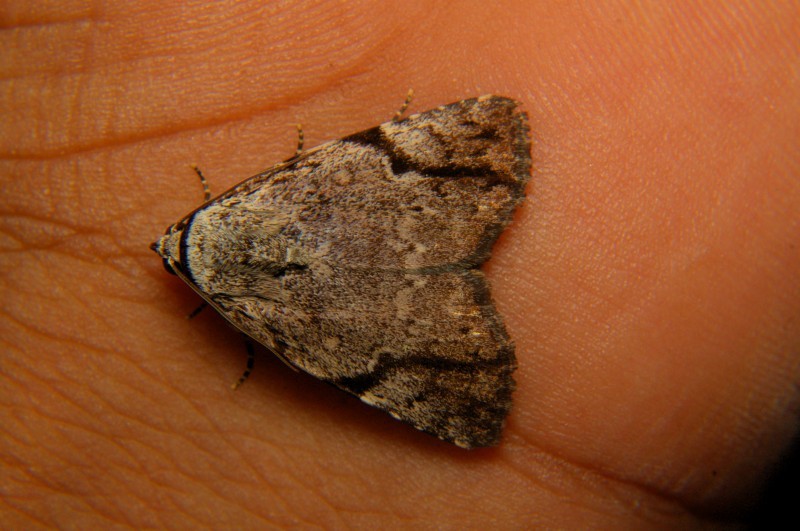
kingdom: Animalia
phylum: Arthropoda
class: Insecta
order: Lepidoptera
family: Noctuidae
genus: Tycracona
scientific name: Tycracona obliqua
